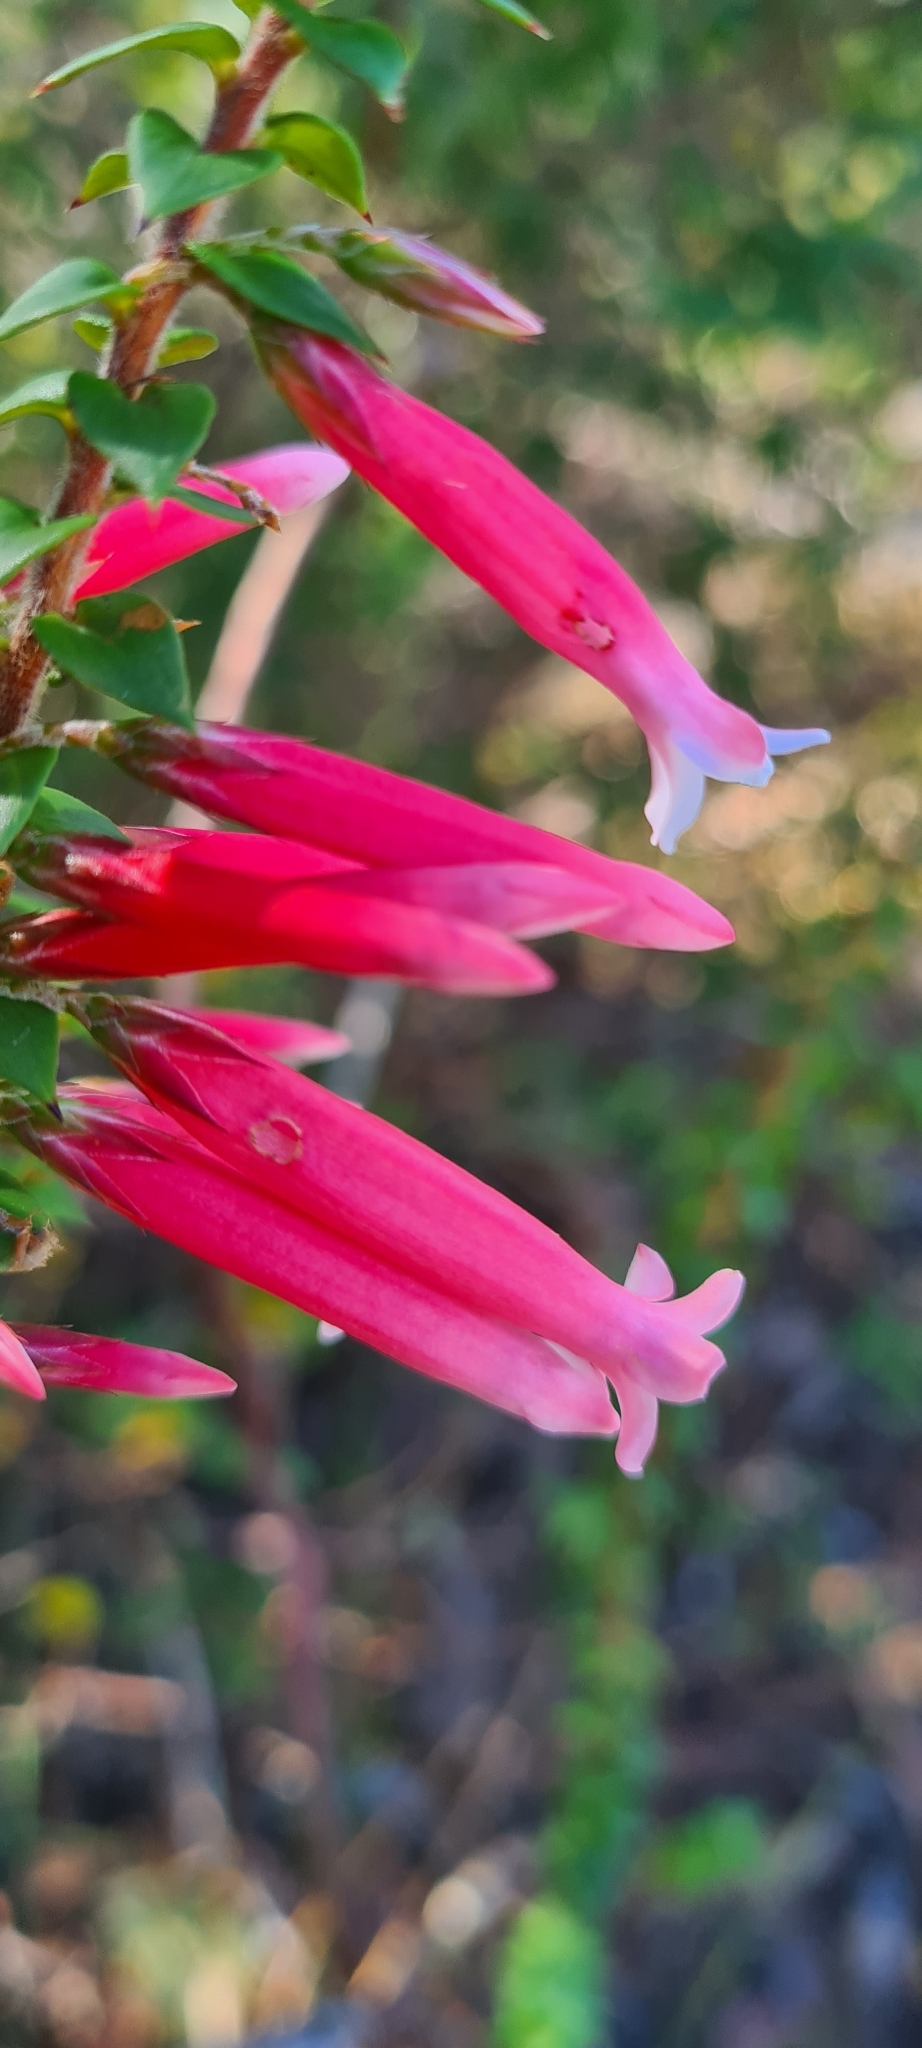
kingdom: Plantae
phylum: Tracheophyta
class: Magnoliopsida
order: Ericales
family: Ericaceae
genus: Epacris
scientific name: Epacris longiflora
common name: Fuchsia-heath
